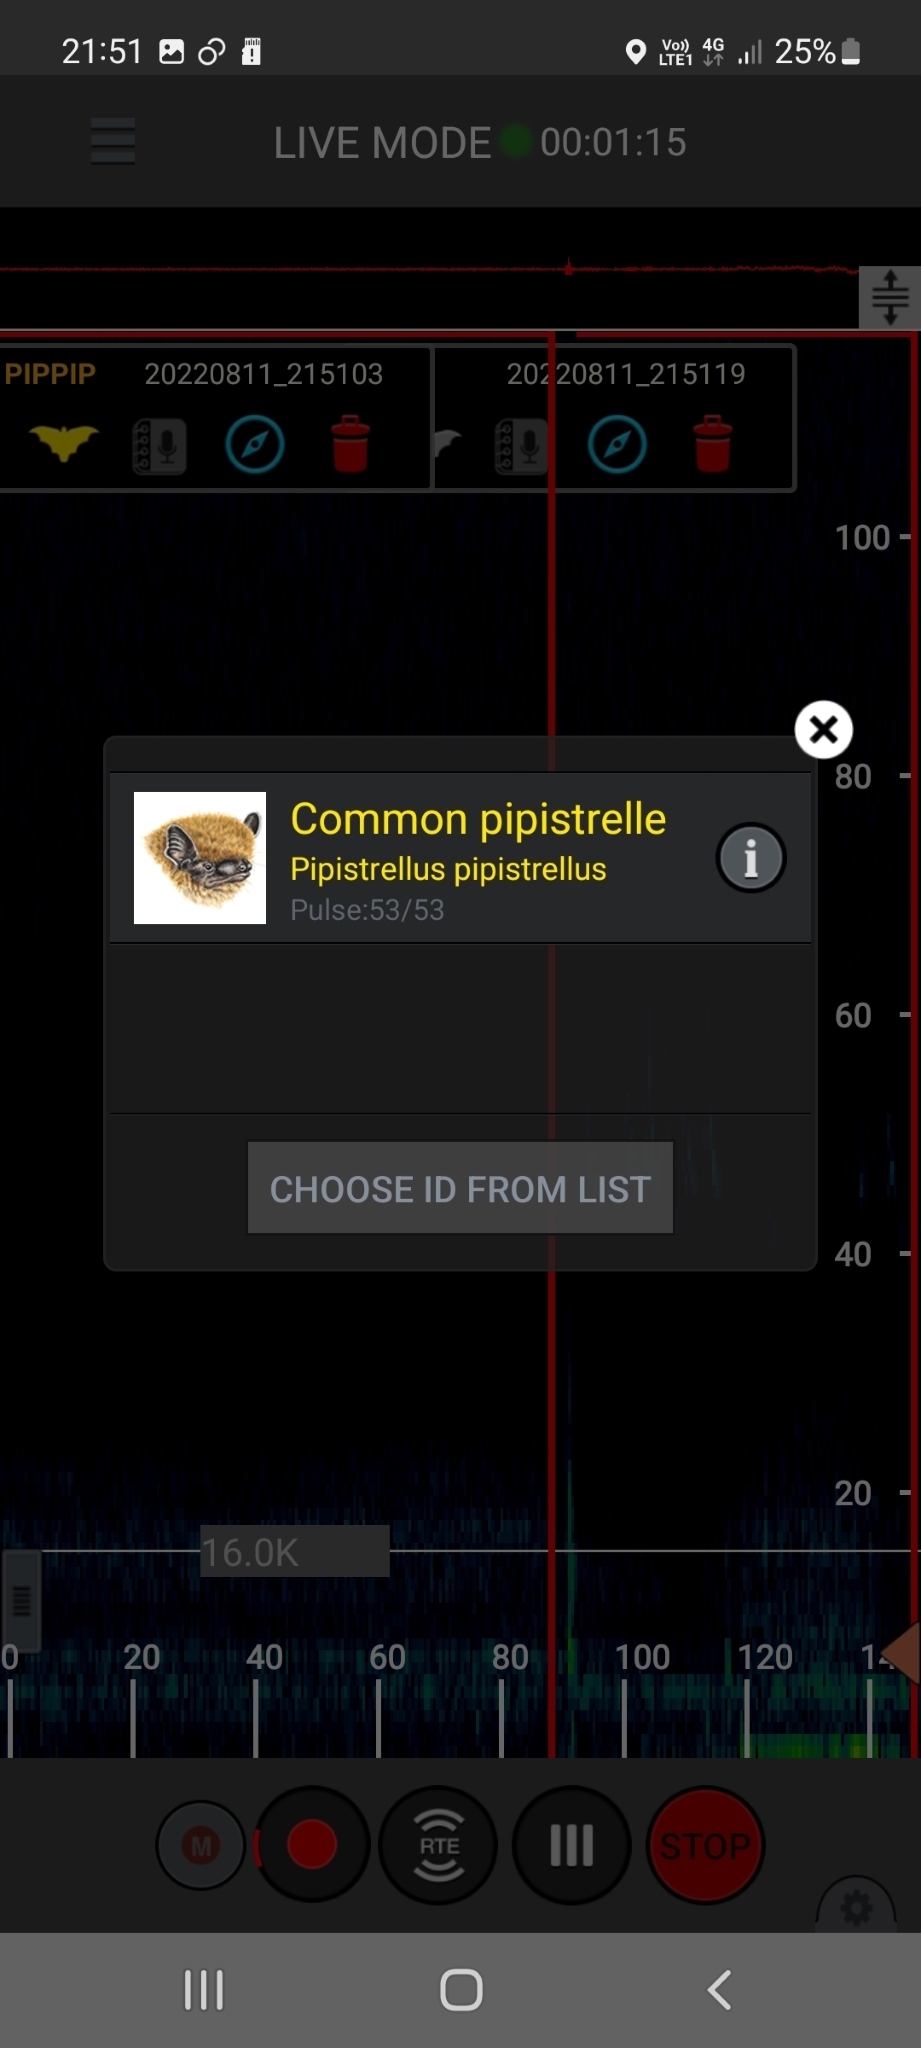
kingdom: Animalia
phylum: Chordata
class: Mammalia
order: Chiroptera
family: Vespertilionidae
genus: Pipistrellus
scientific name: Pipistrellus pipistrellus
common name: Common pipistrelle
